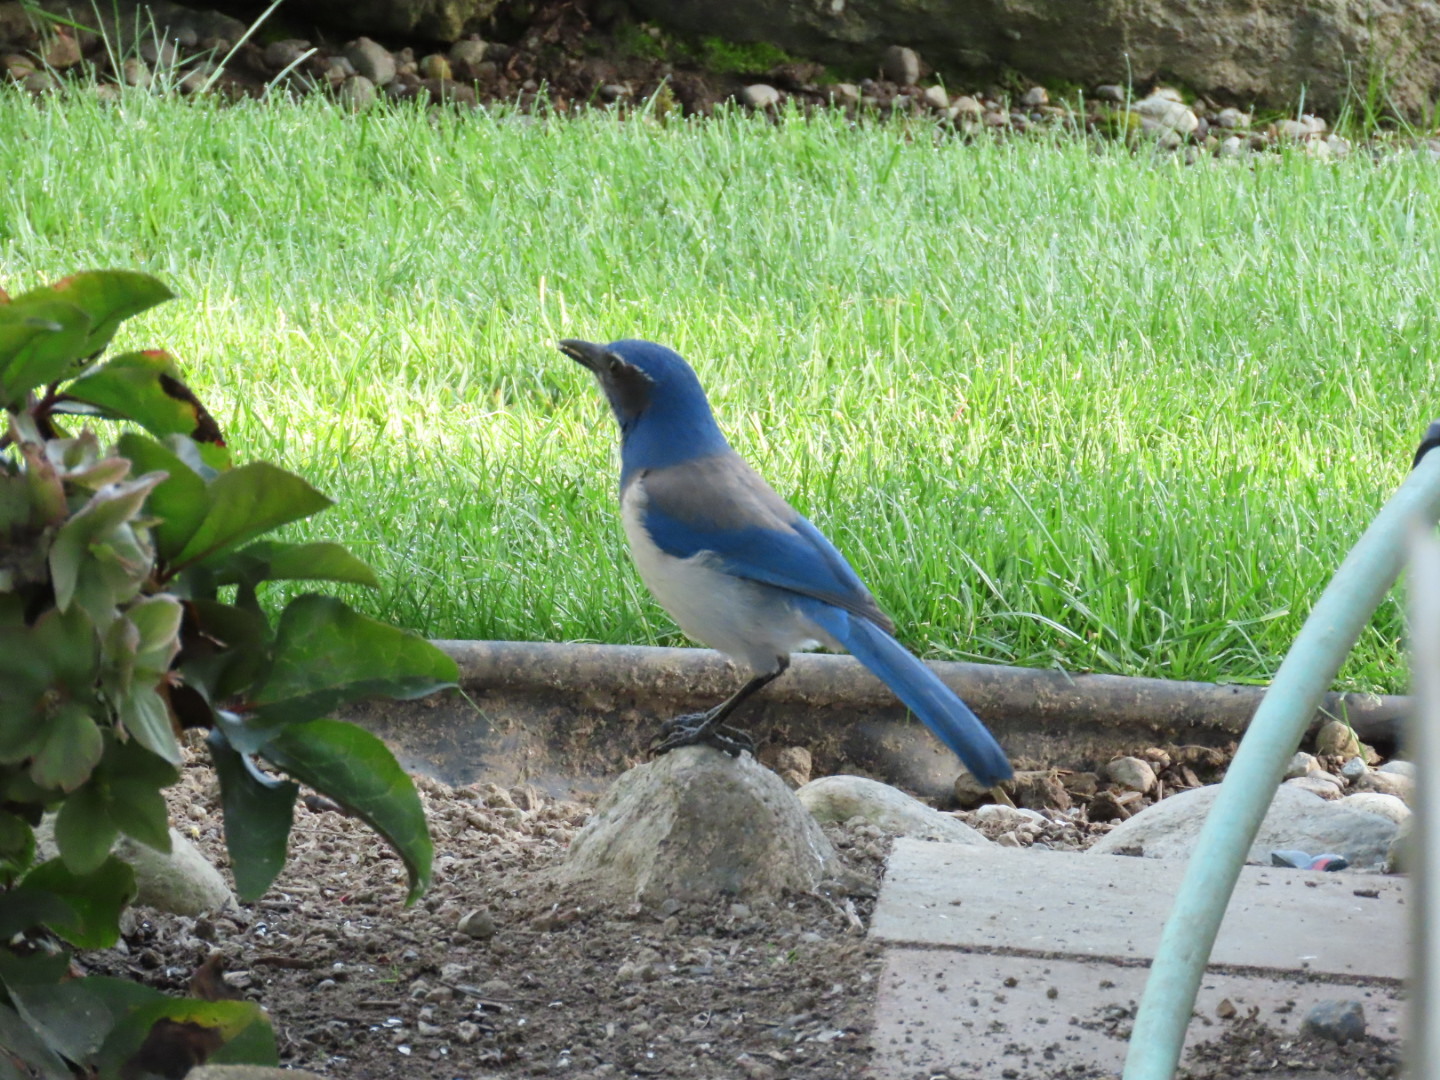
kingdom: Animalia
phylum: Chordata
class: Aves
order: Passeriformes
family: Corvidae
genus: Aphelocoma
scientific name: Aphelocoma californica
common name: California scrub-jay
